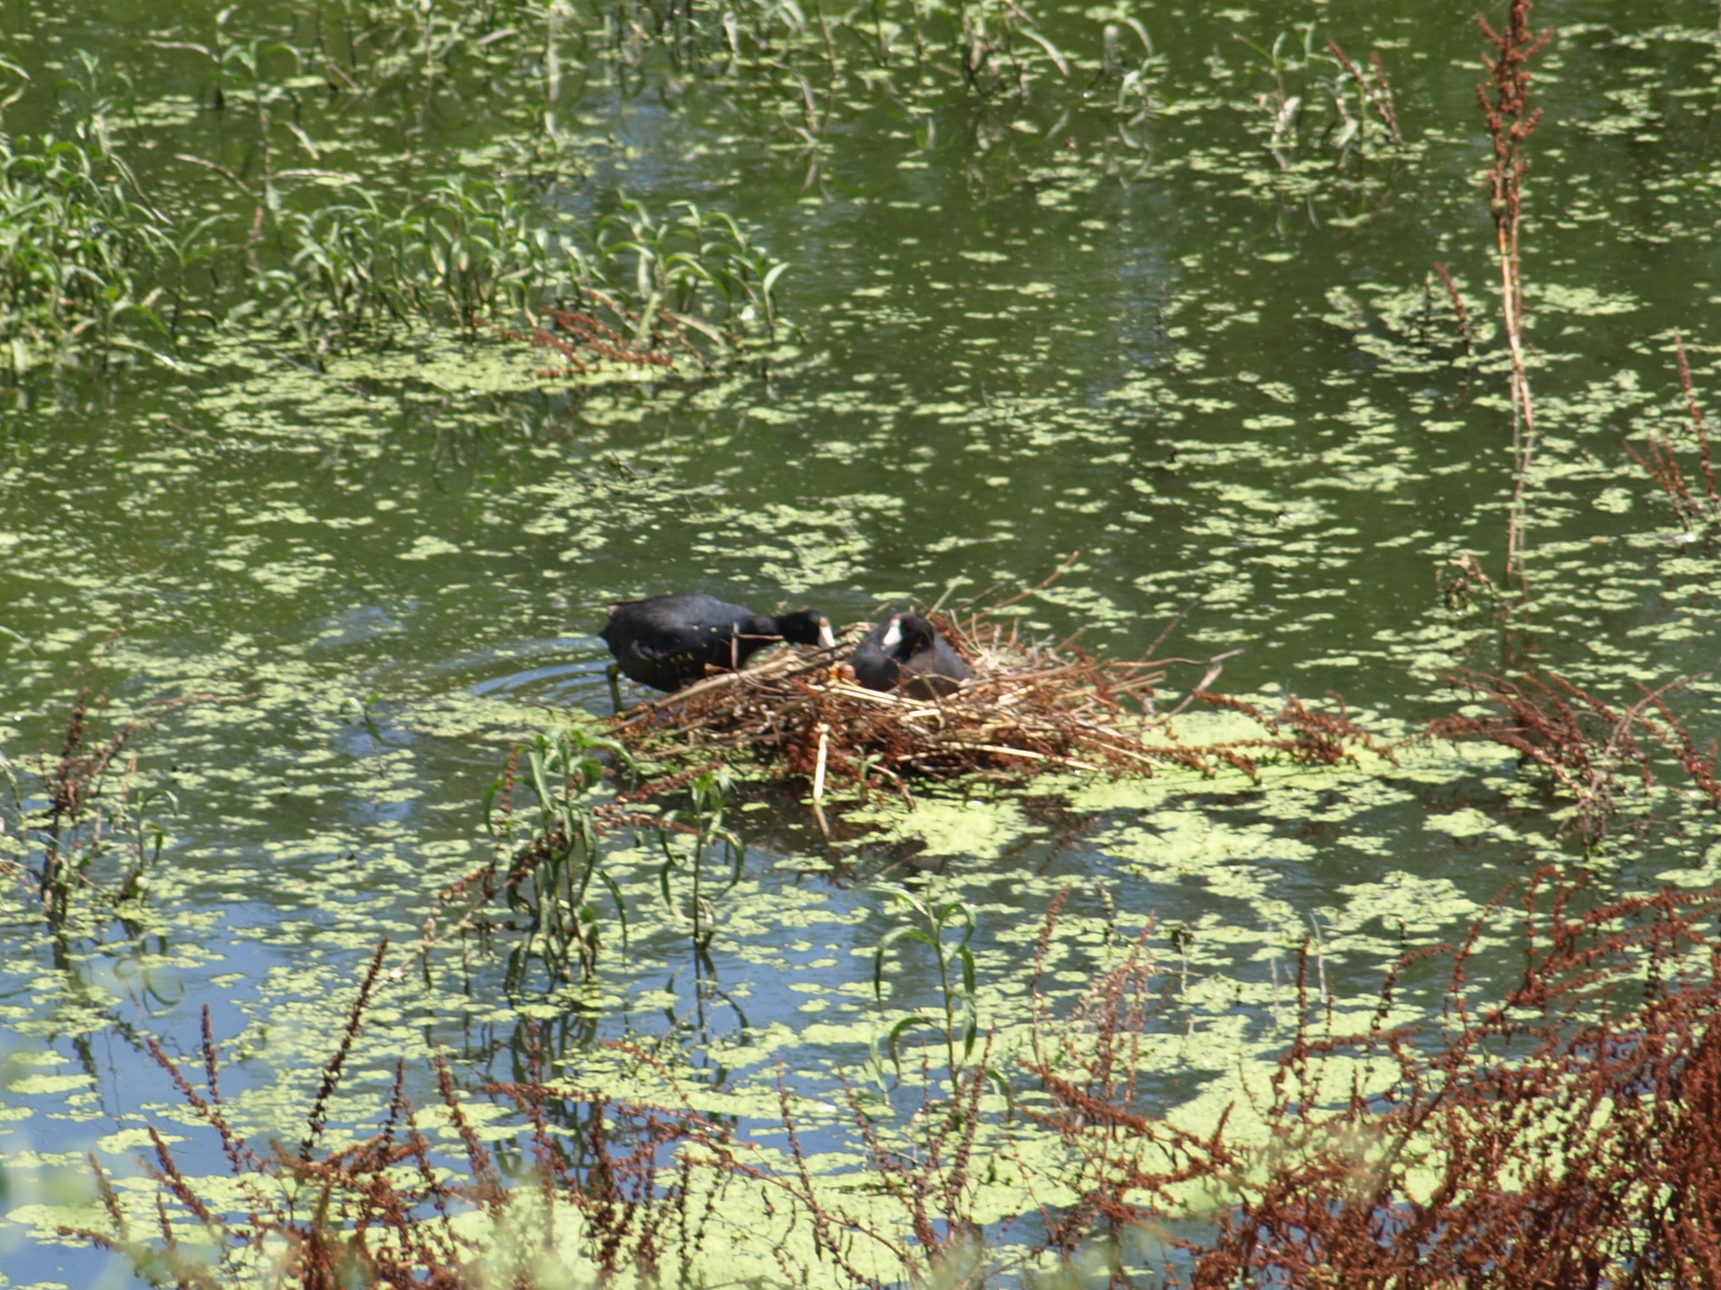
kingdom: Animalia
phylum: Chordata
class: Aves
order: Gruiformes
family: Rallidae
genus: Fulica
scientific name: Fulica americana
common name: American coot
